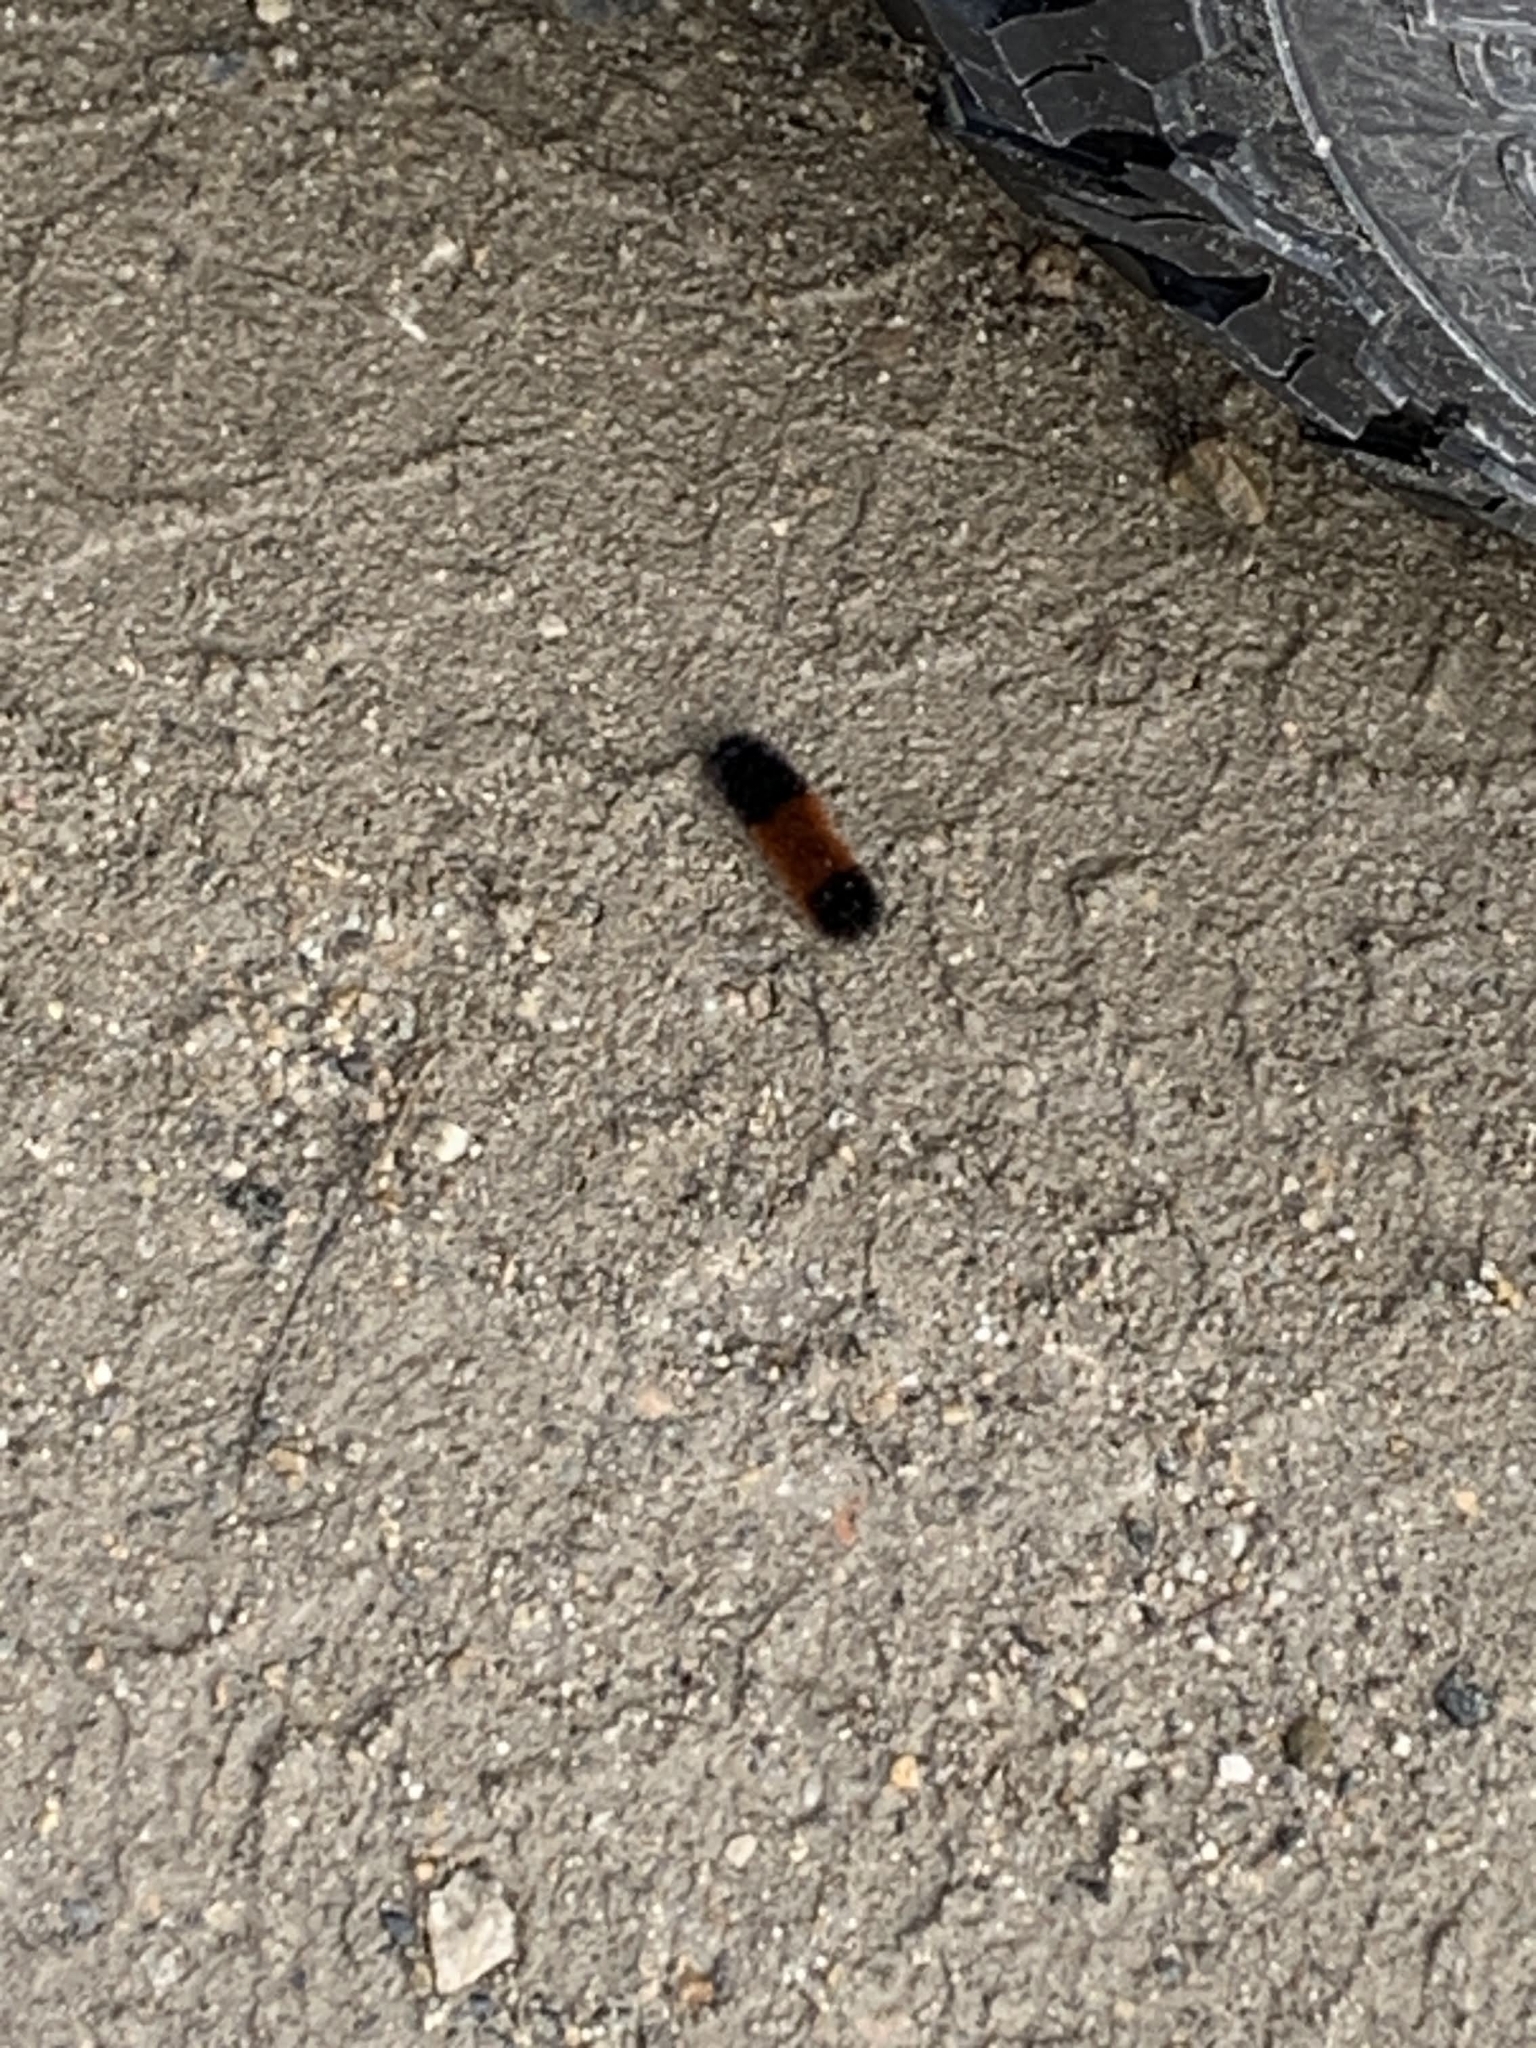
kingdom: Animalia
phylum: Arthropoda
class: Insecta
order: Lepidoptera
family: Erebidae
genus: Pyrrharctia
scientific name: Pyrrharctia isabella
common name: Isabella tiger moth
